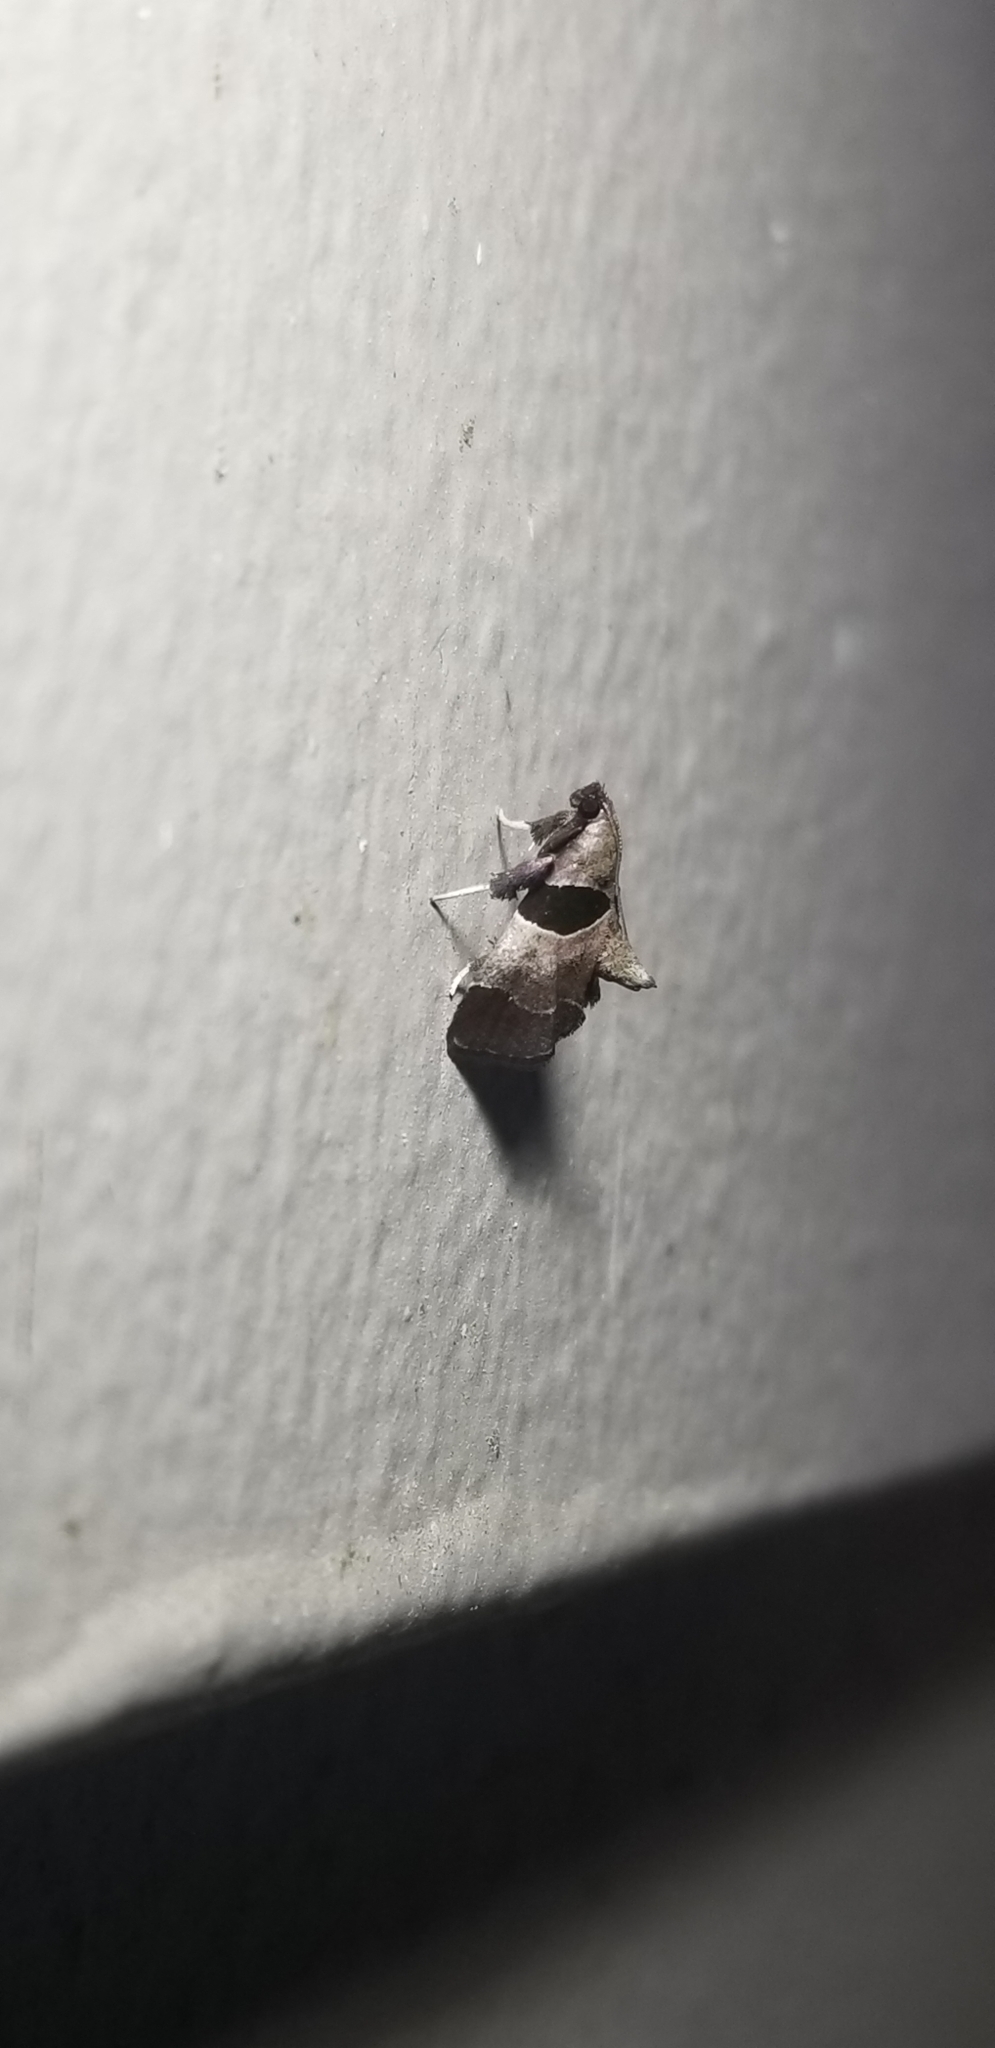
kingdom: Animalia
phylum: Arthropoda
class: Insecta
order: Lepidoptera
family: Pyralidae
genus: Tosale
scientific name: Tosale oviplagalis
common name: Dimorphic tosale moth
